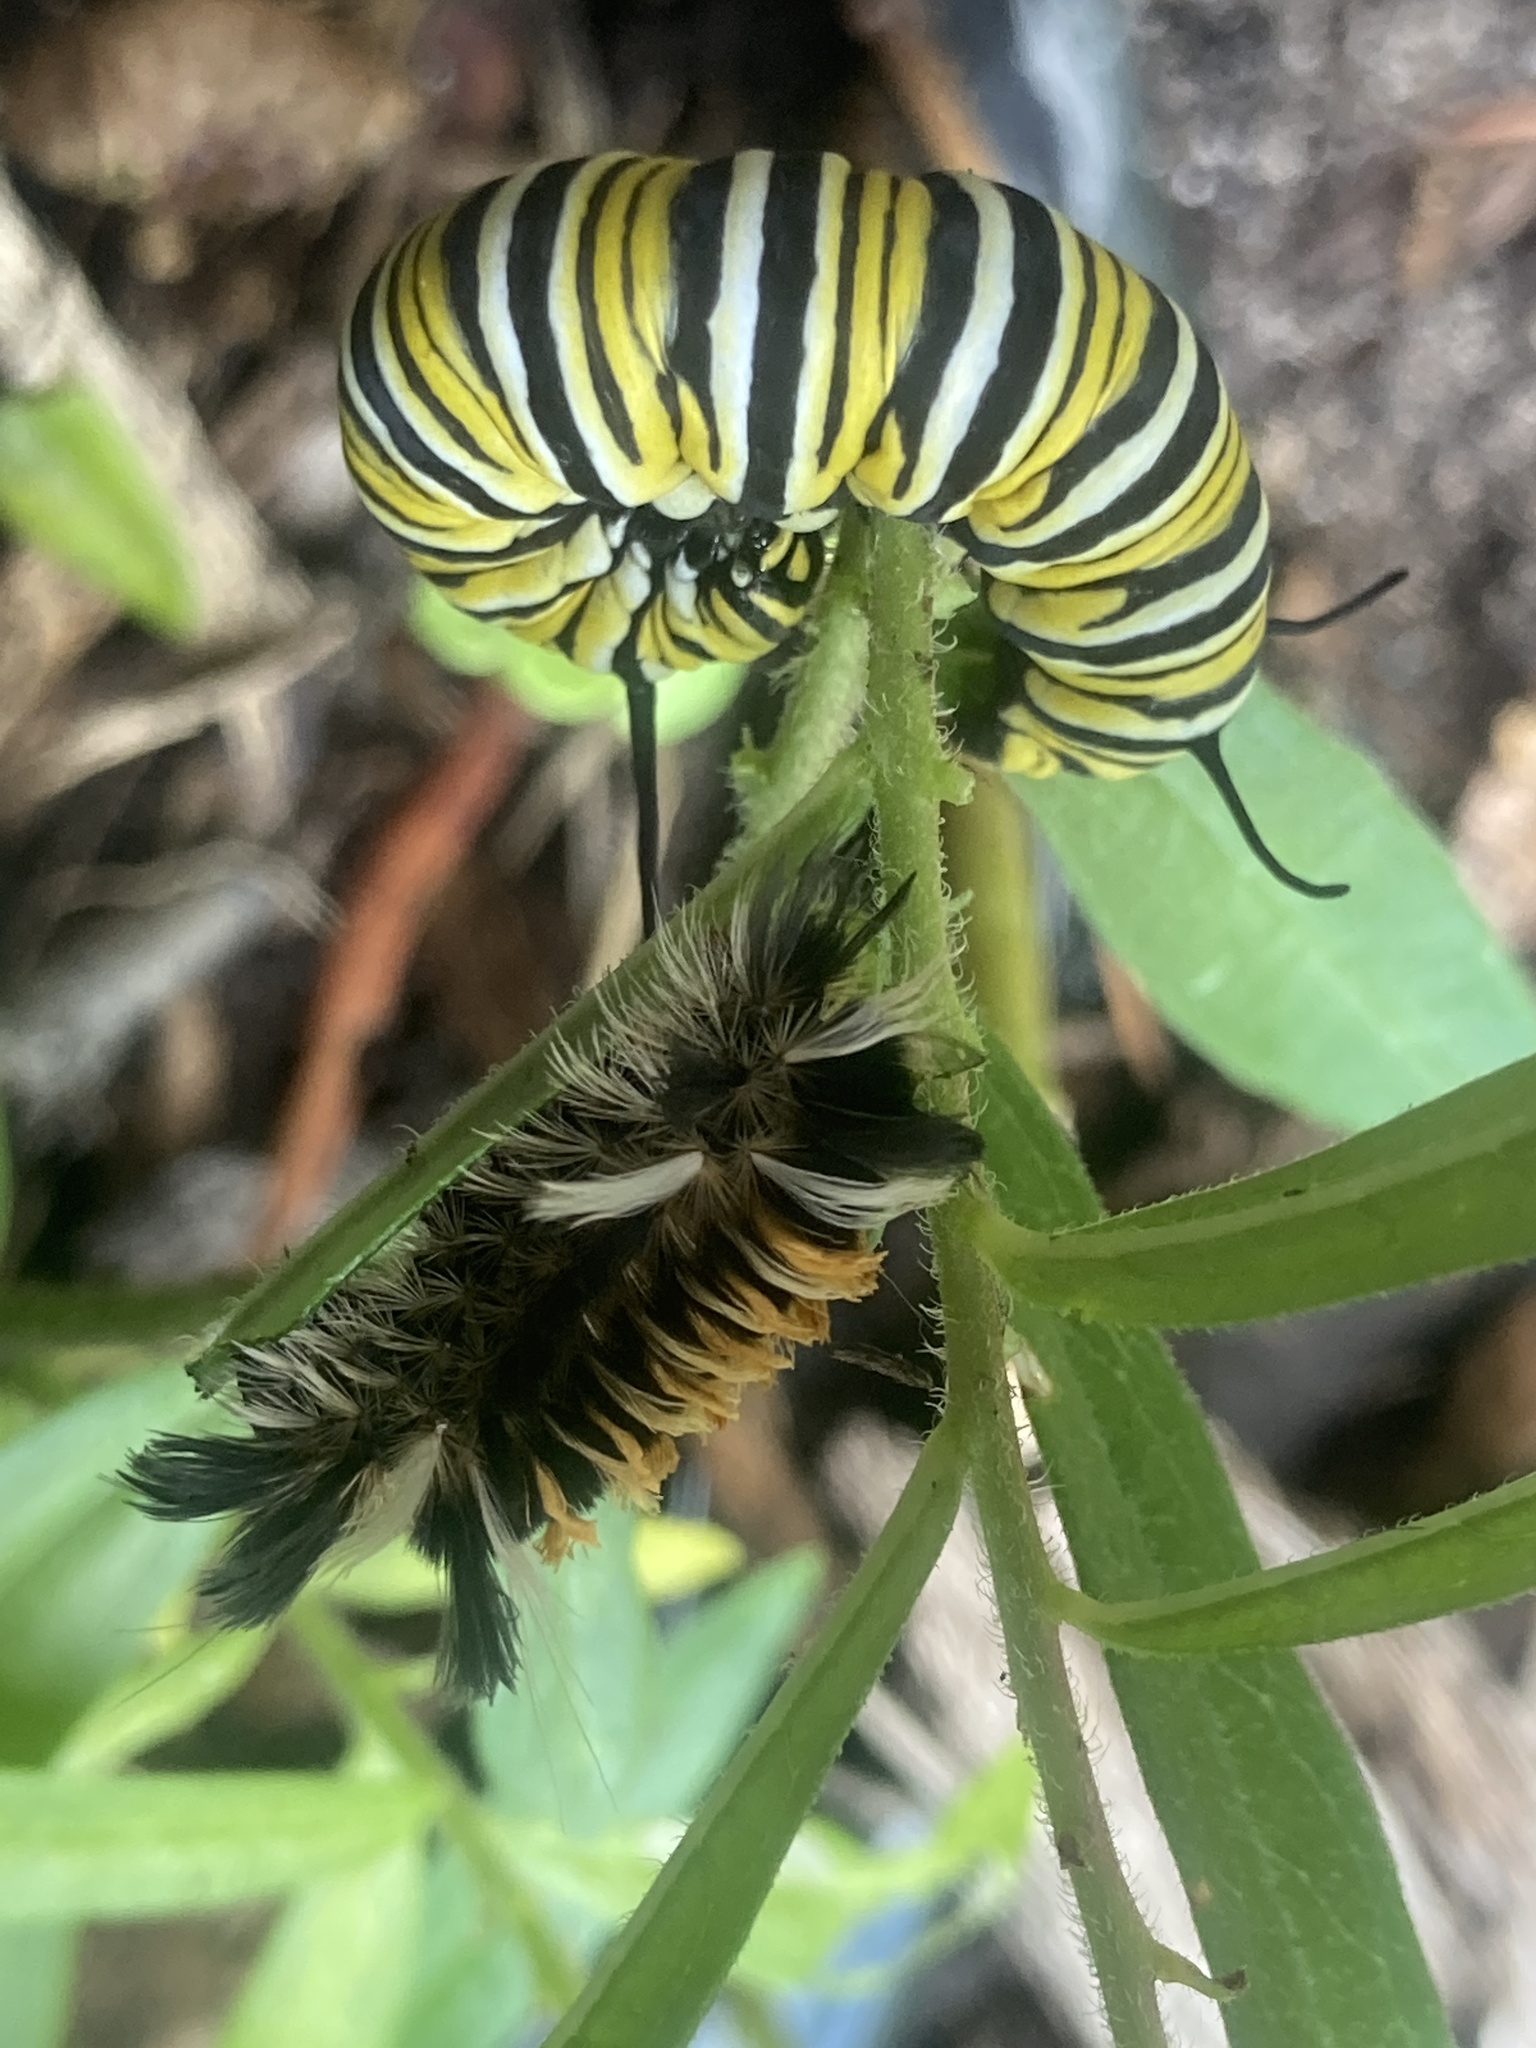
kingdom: Animalia
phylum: Arthropoda
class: Insecta
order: Lepidoptera
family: Erebidae
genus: Euchaetes
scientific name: Euchaetes egle
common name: Milkweed tussock moth
